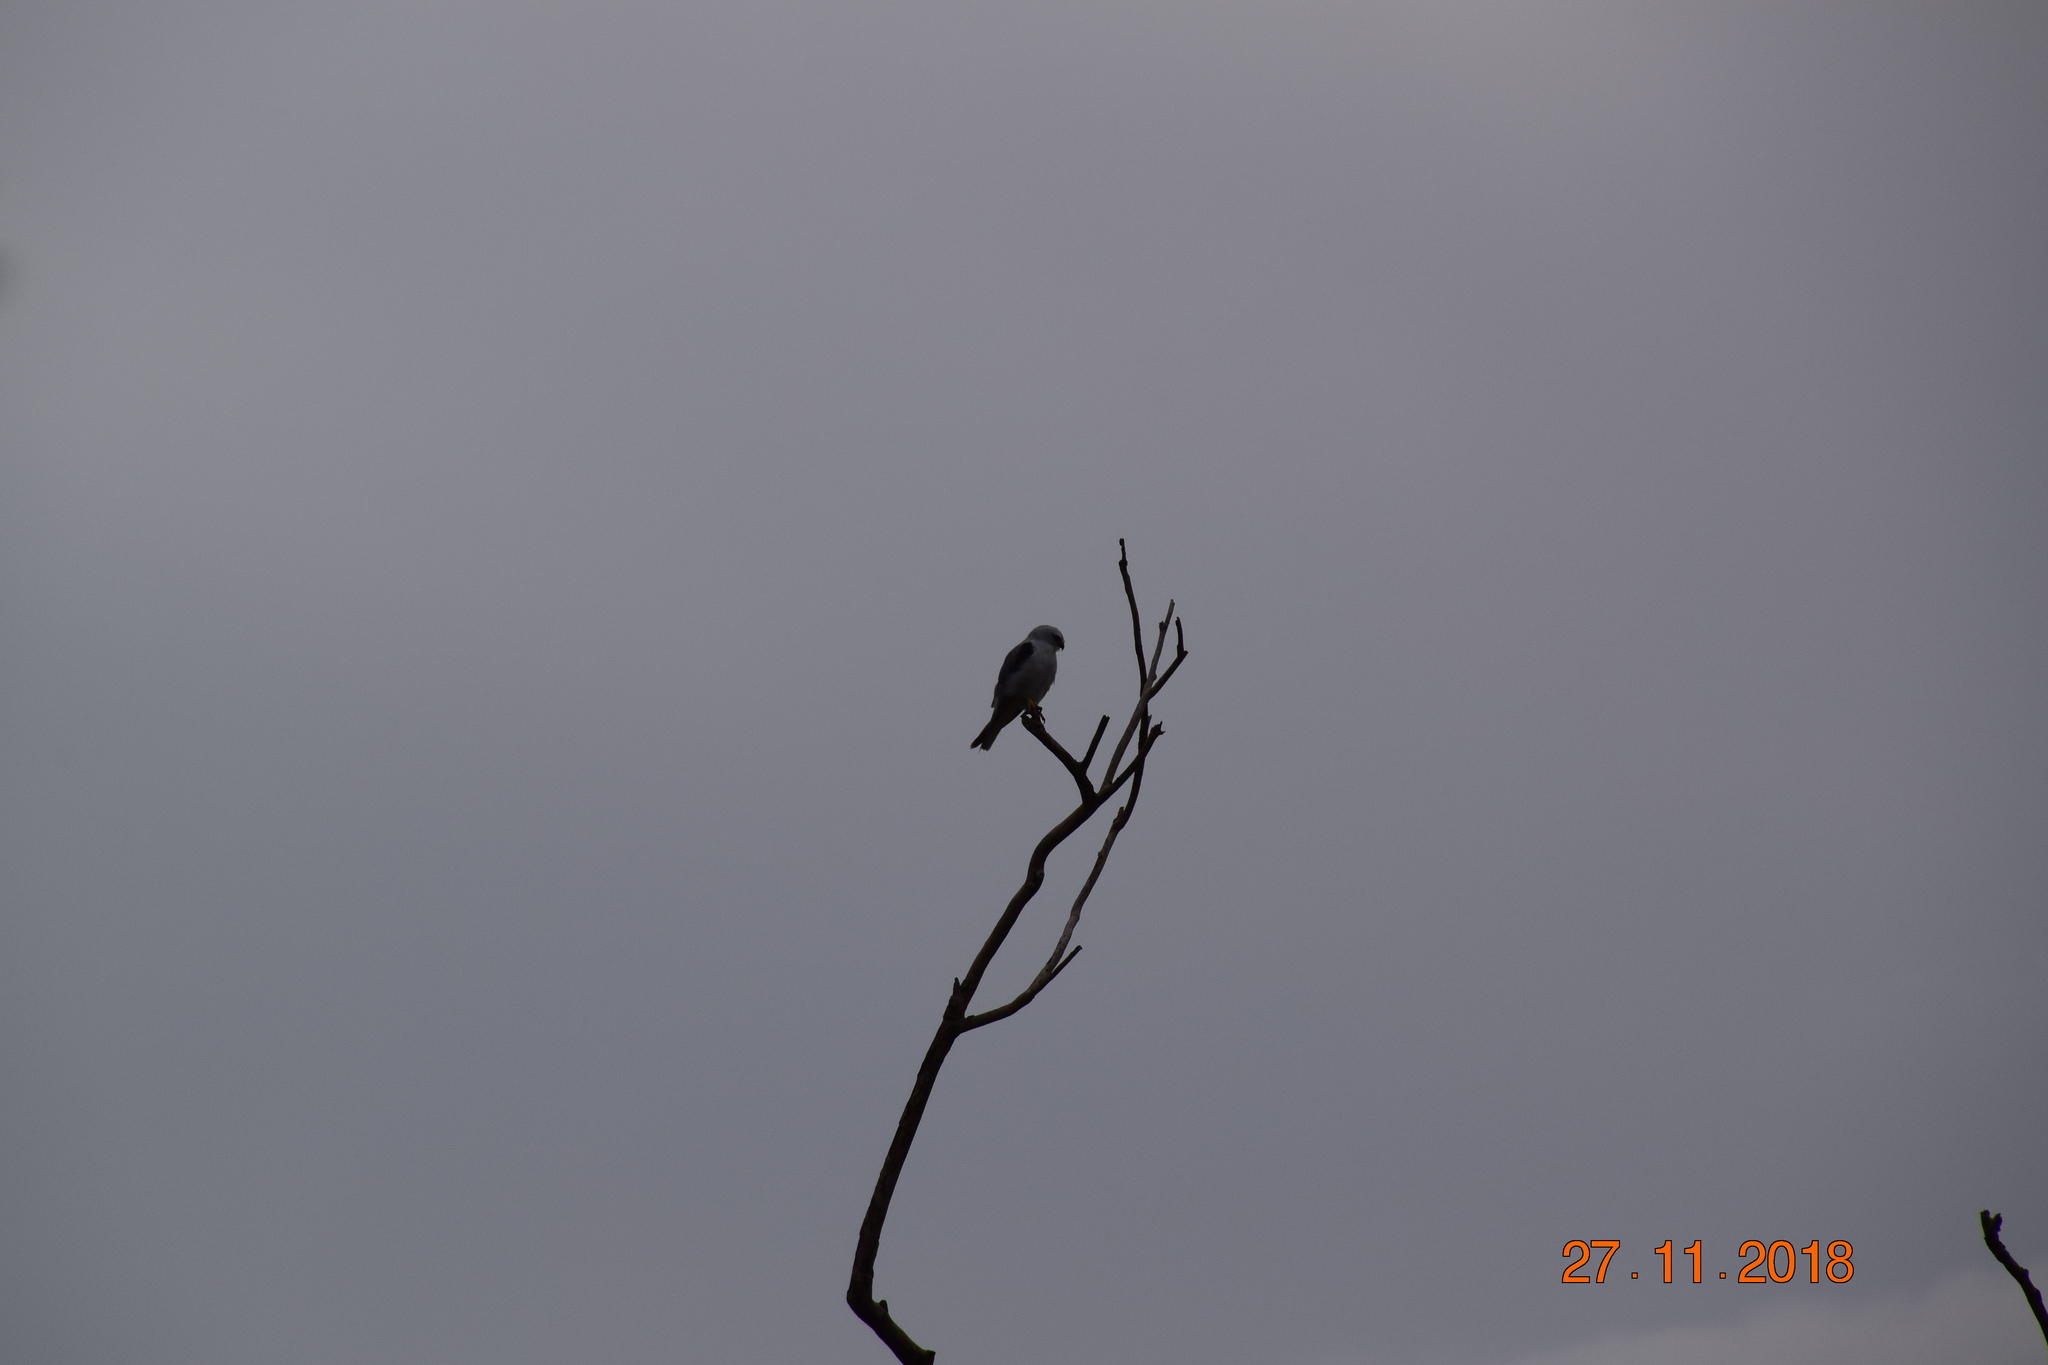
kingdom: Animalia
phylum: Chordata
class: Aves
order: Accipitriformes
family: Accipitridae
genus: Elanus
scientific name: Elanus axillaris
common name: Black-shouldered kite
